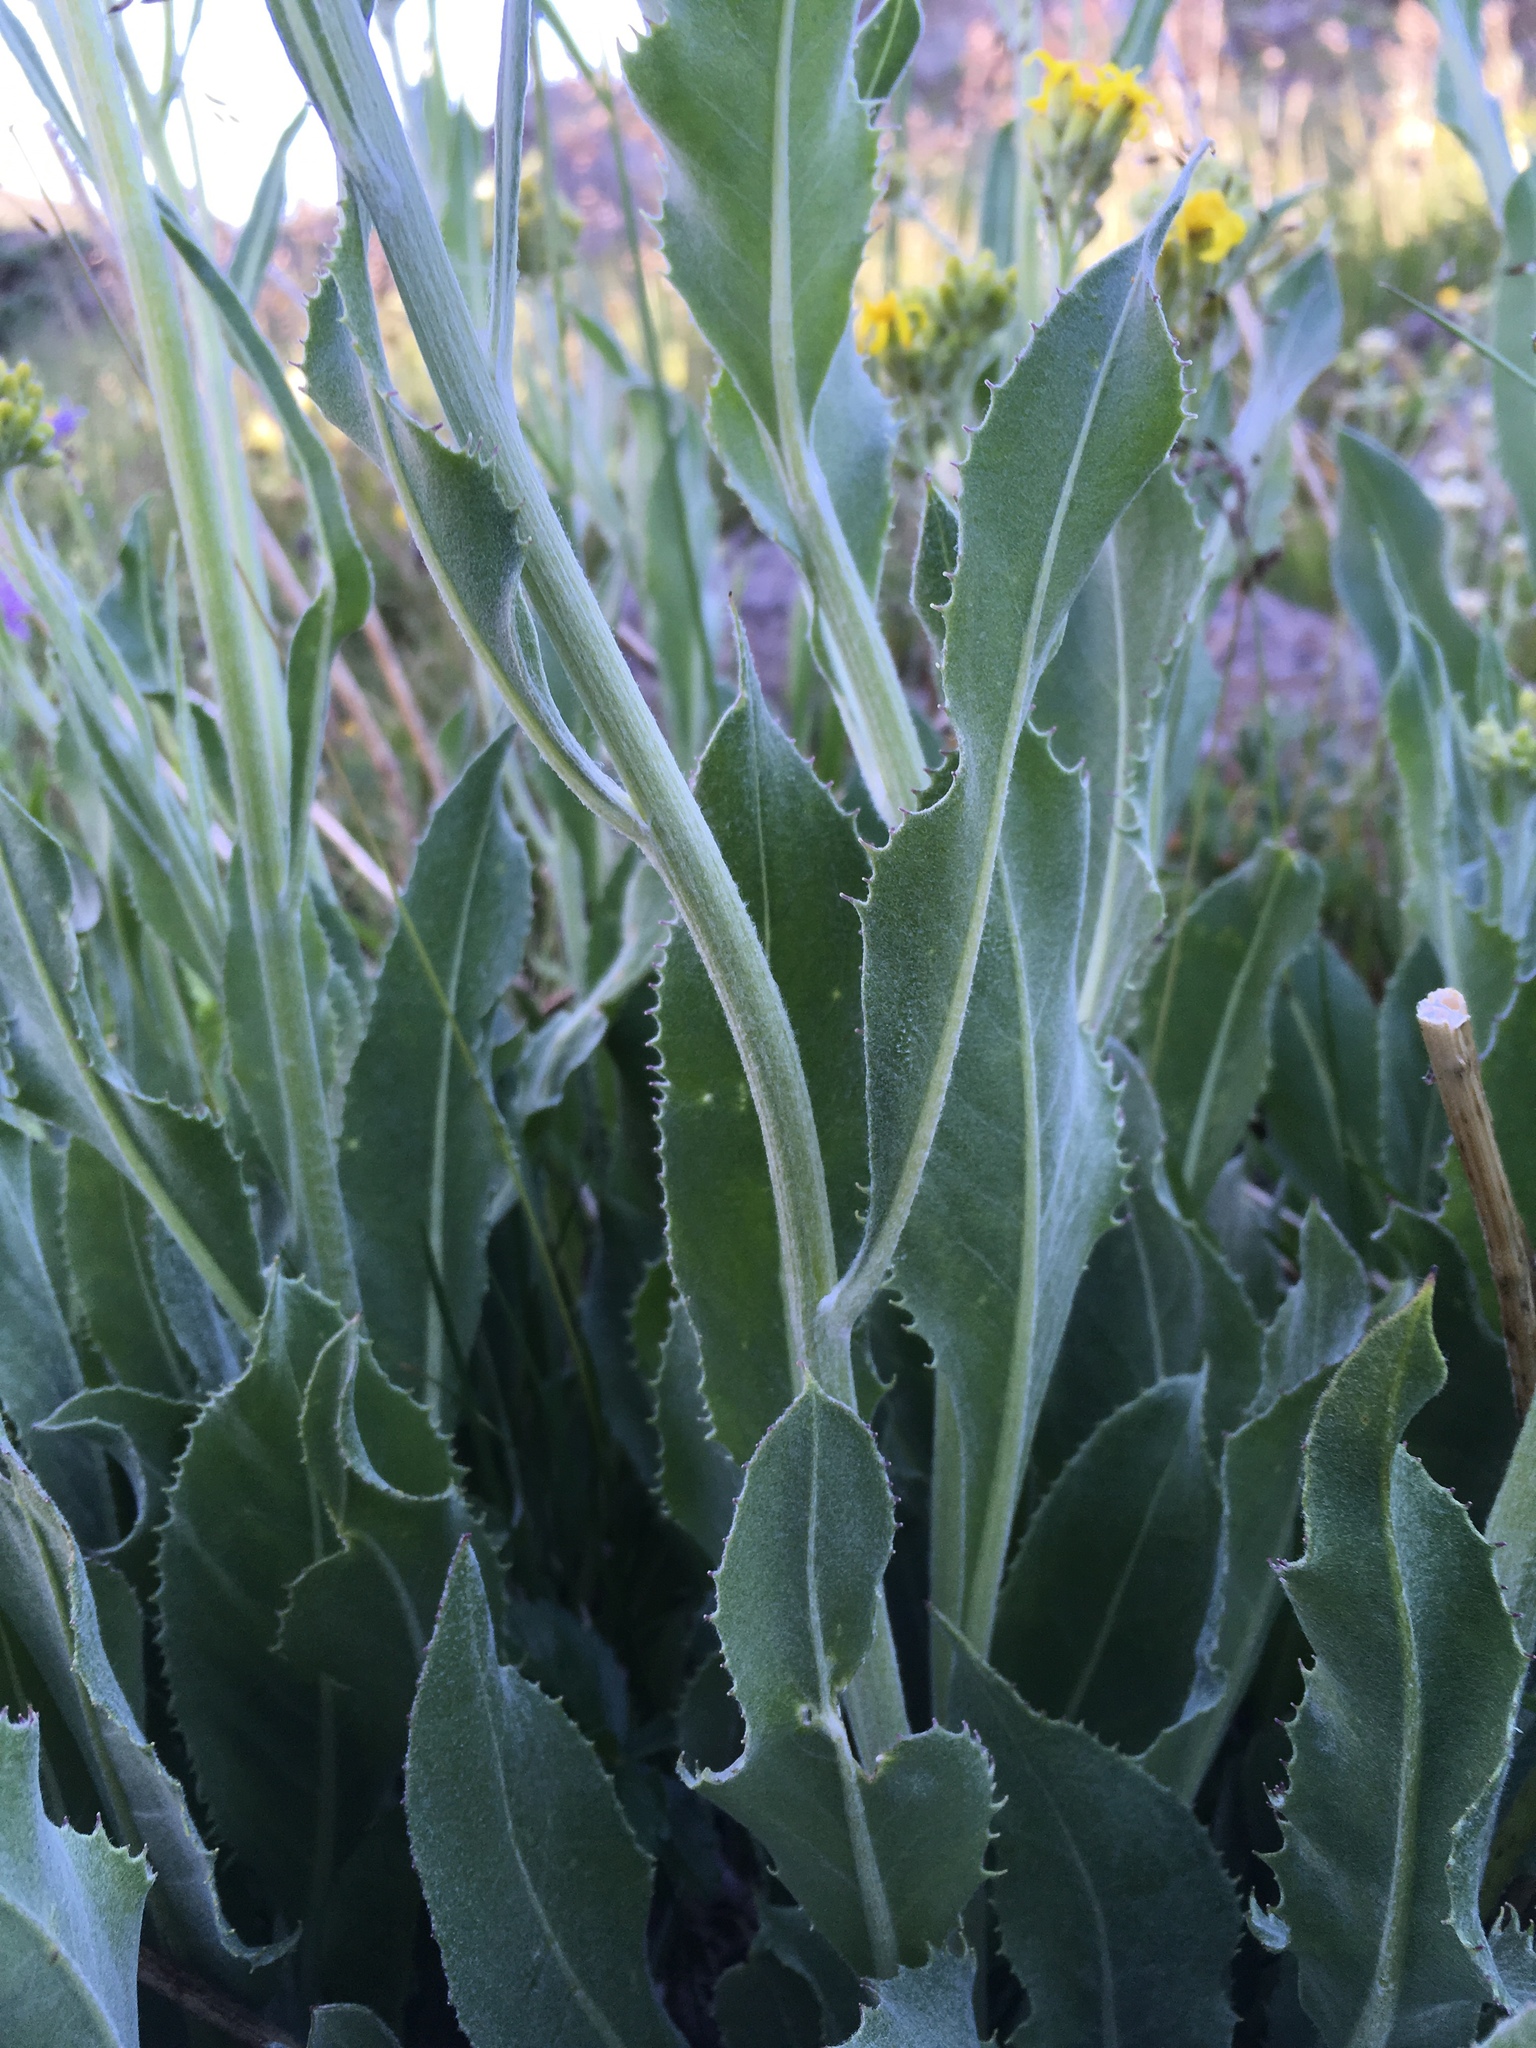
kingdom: Plantae
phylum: Tracheophyta
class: Magnoliopsida
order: Asterales
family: Asteraceae
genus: Senecio
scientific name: Senecio atratus
